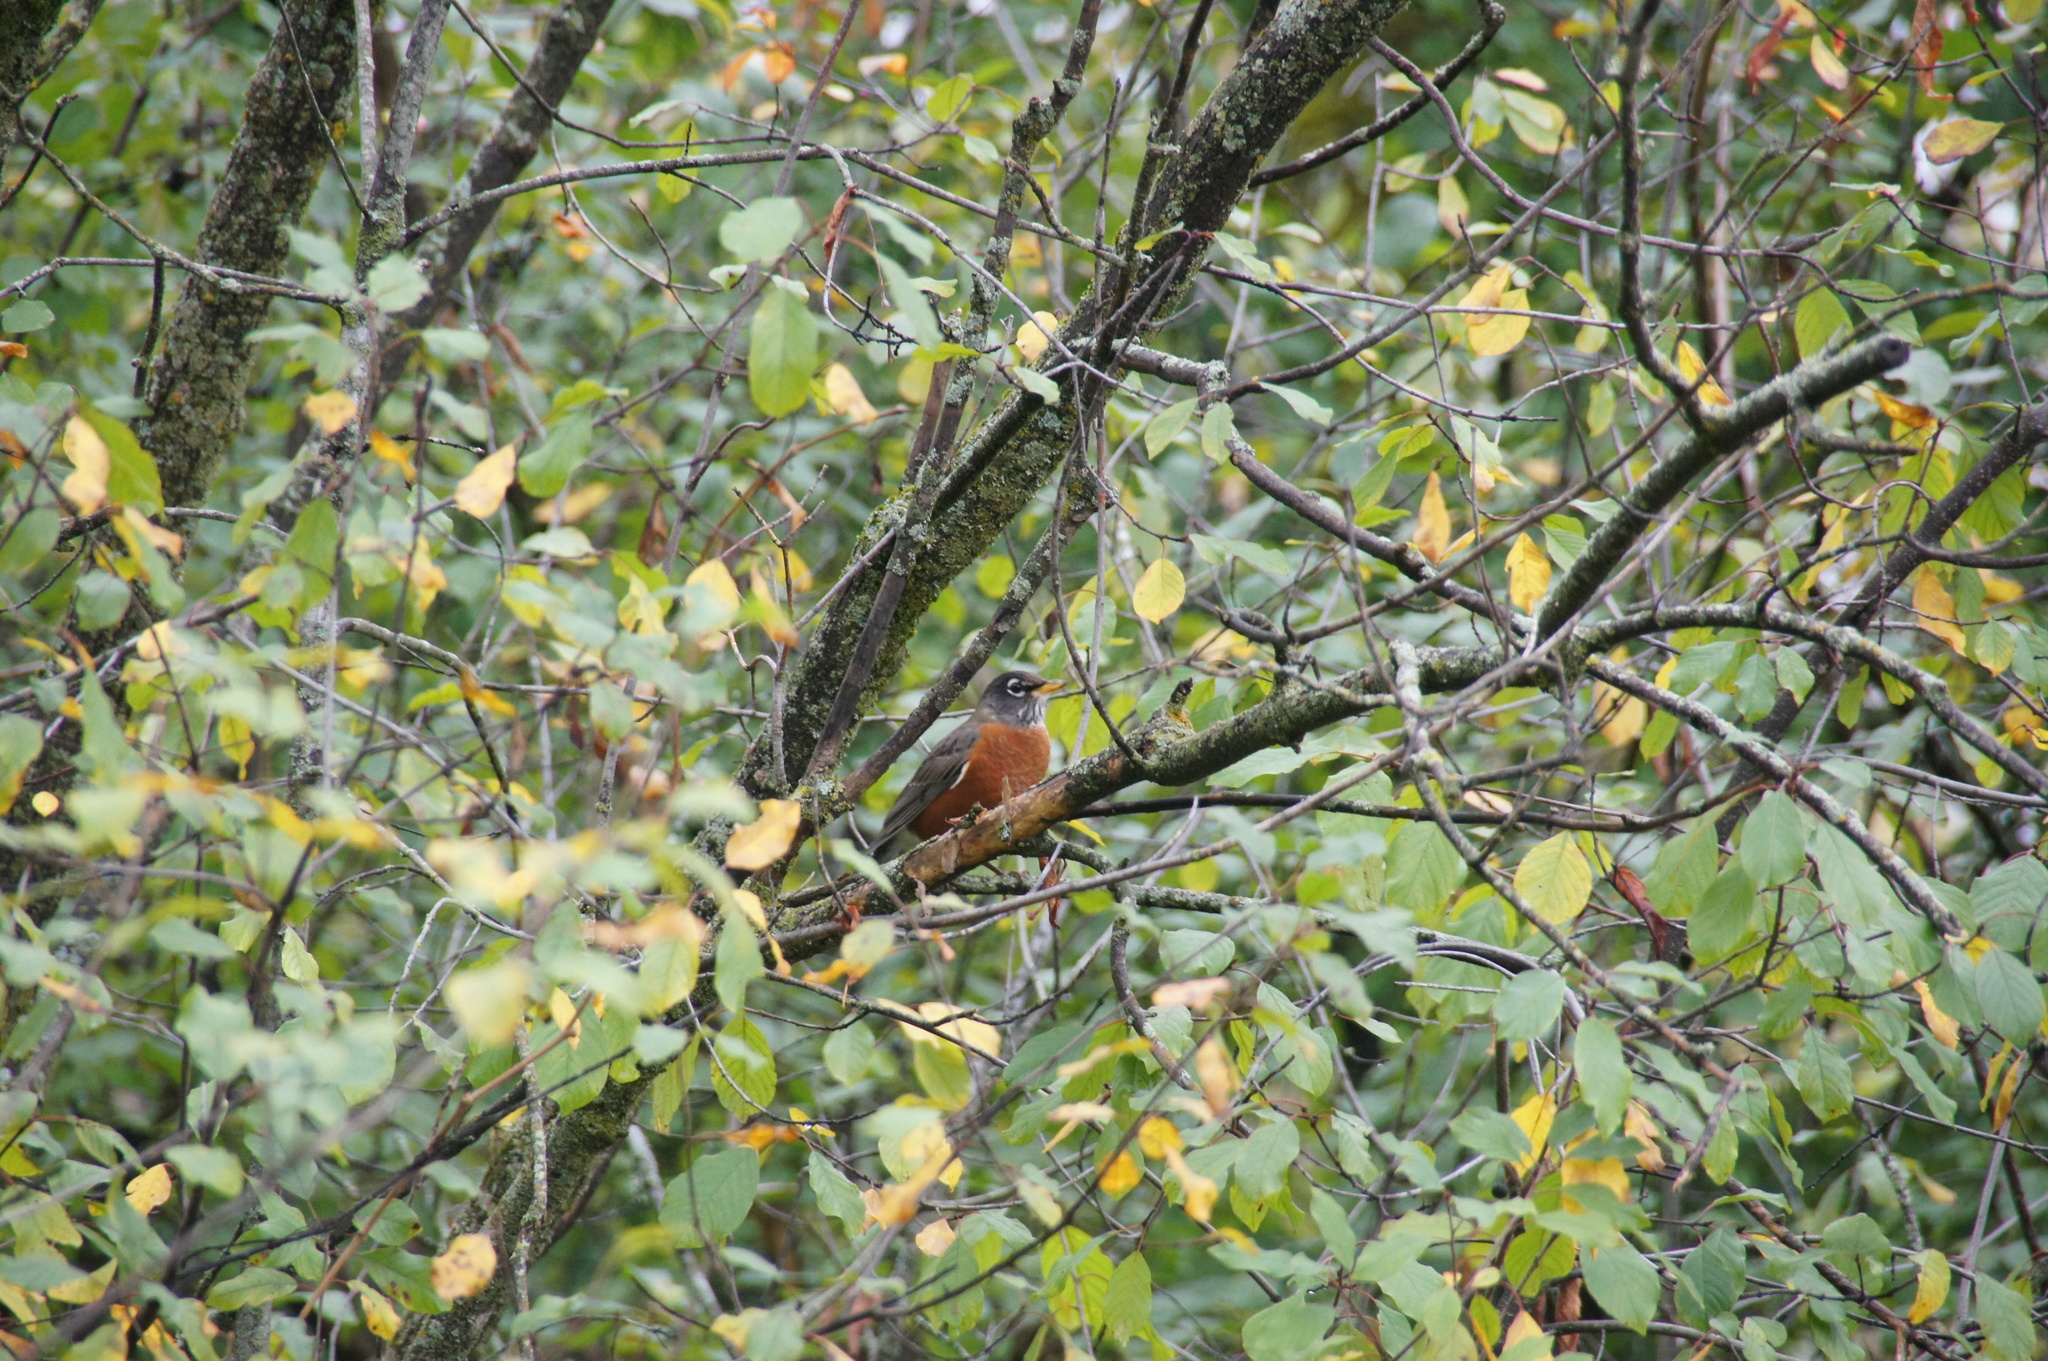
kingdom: Animalia
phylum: Chordata
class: Aves
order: Passeriformes
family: Turdidae
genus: Turdus
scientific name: Turdus migratorius
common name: American robin
